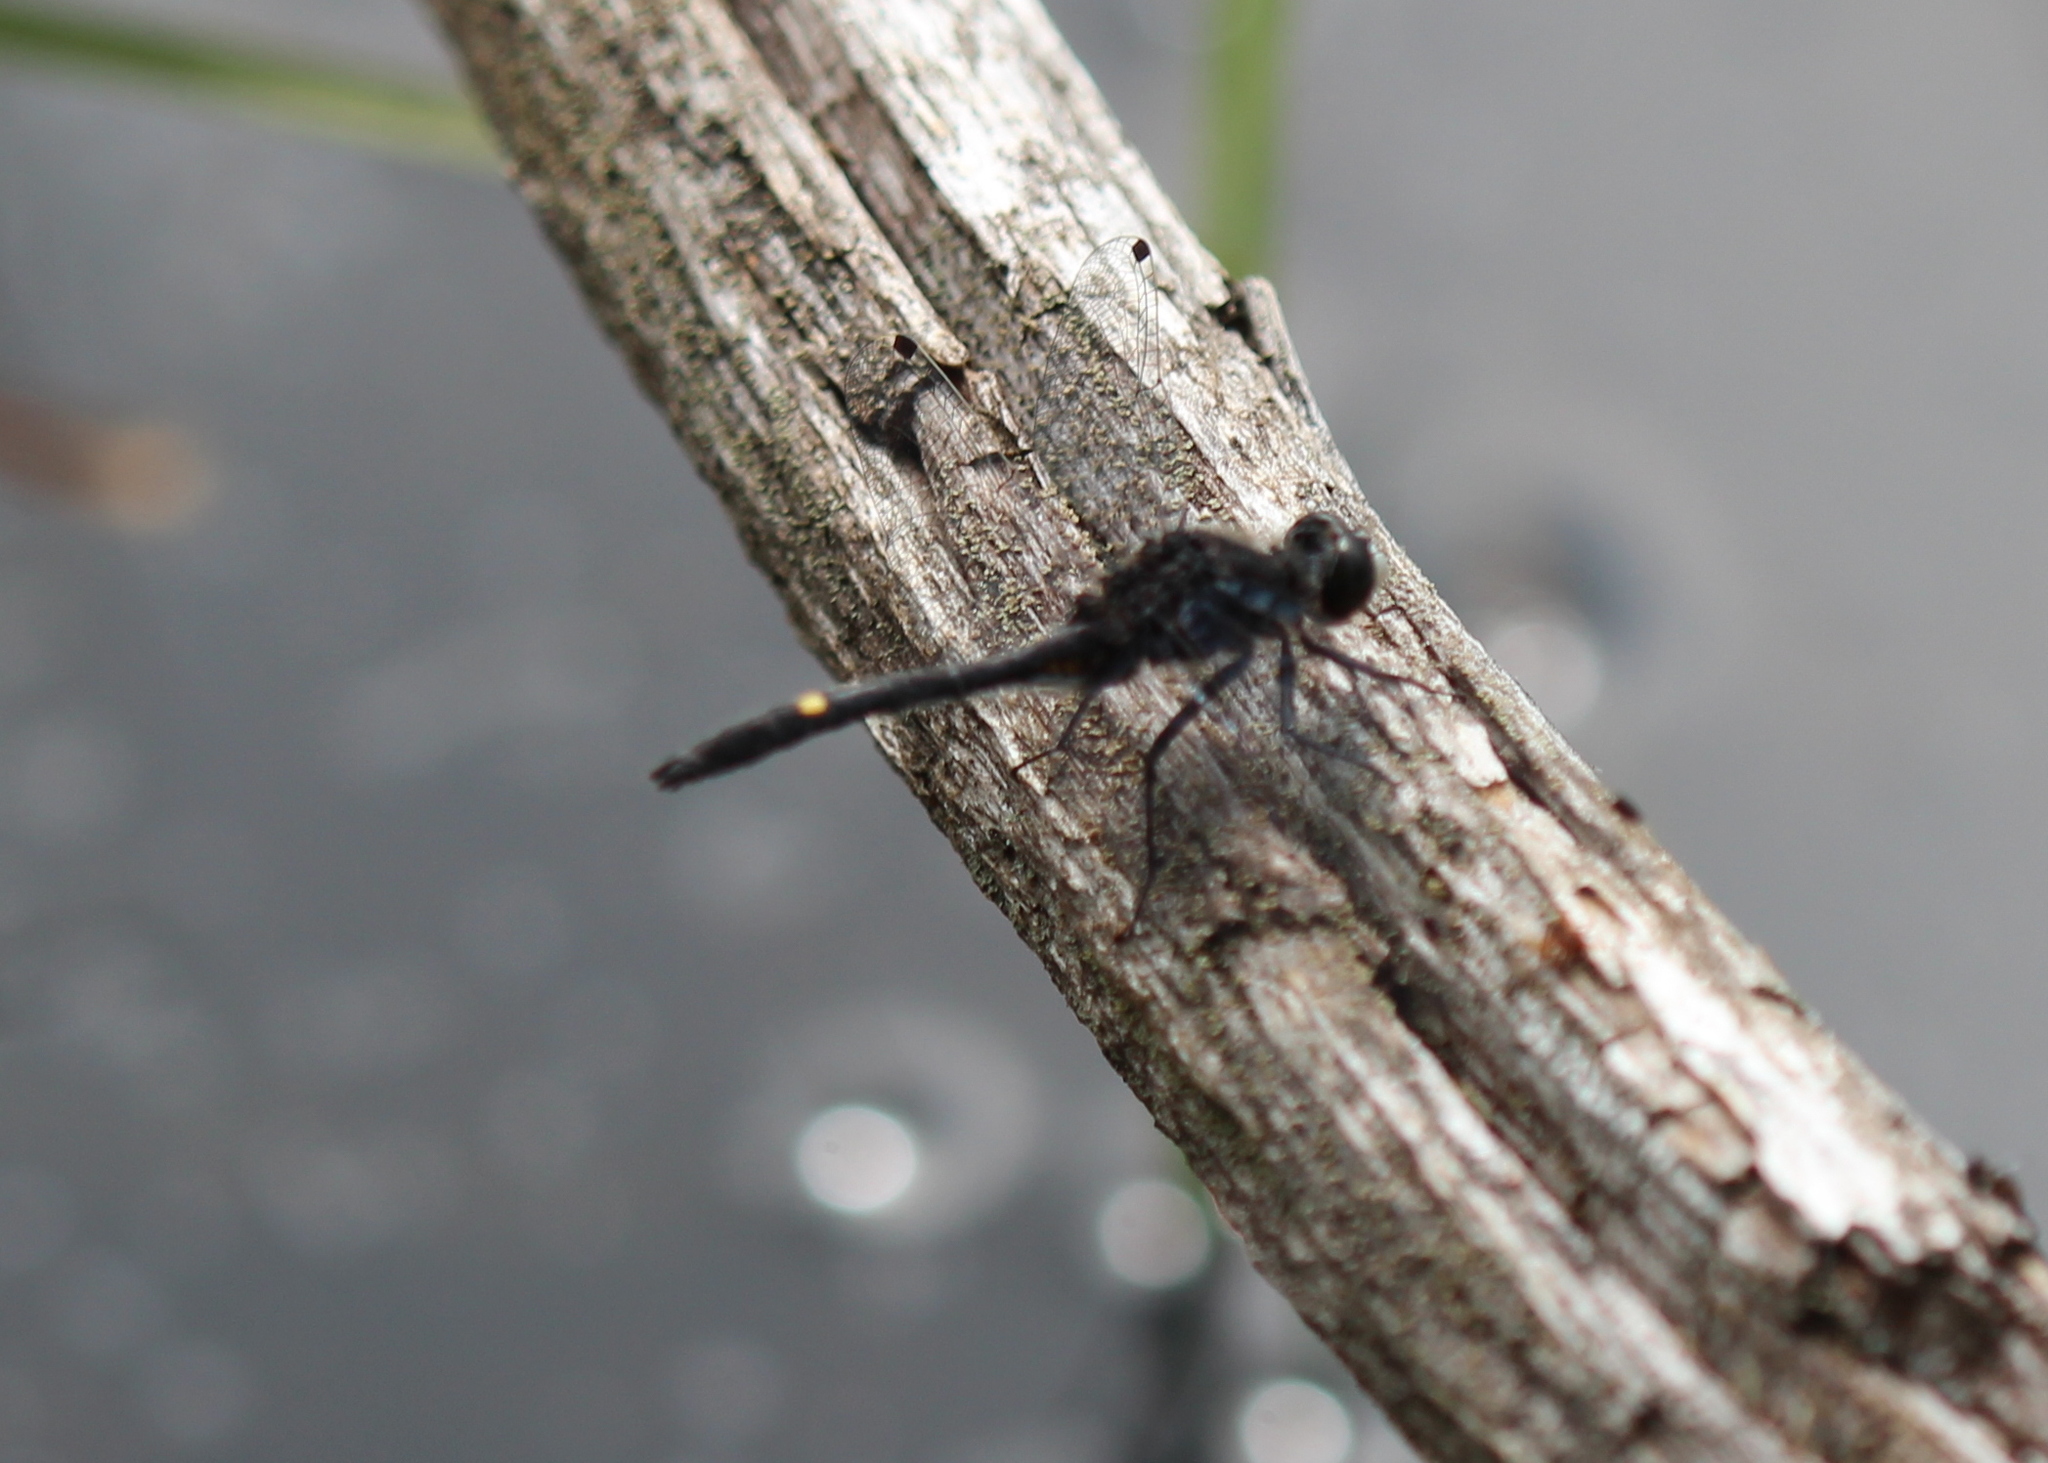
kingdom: Animalia
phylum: Arthropoda
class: Insecta
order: Odonata
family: Libellulidae
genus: Leucorrhinia
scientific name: Leucorrhinia intacta
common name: Dot-tailed whiteface
